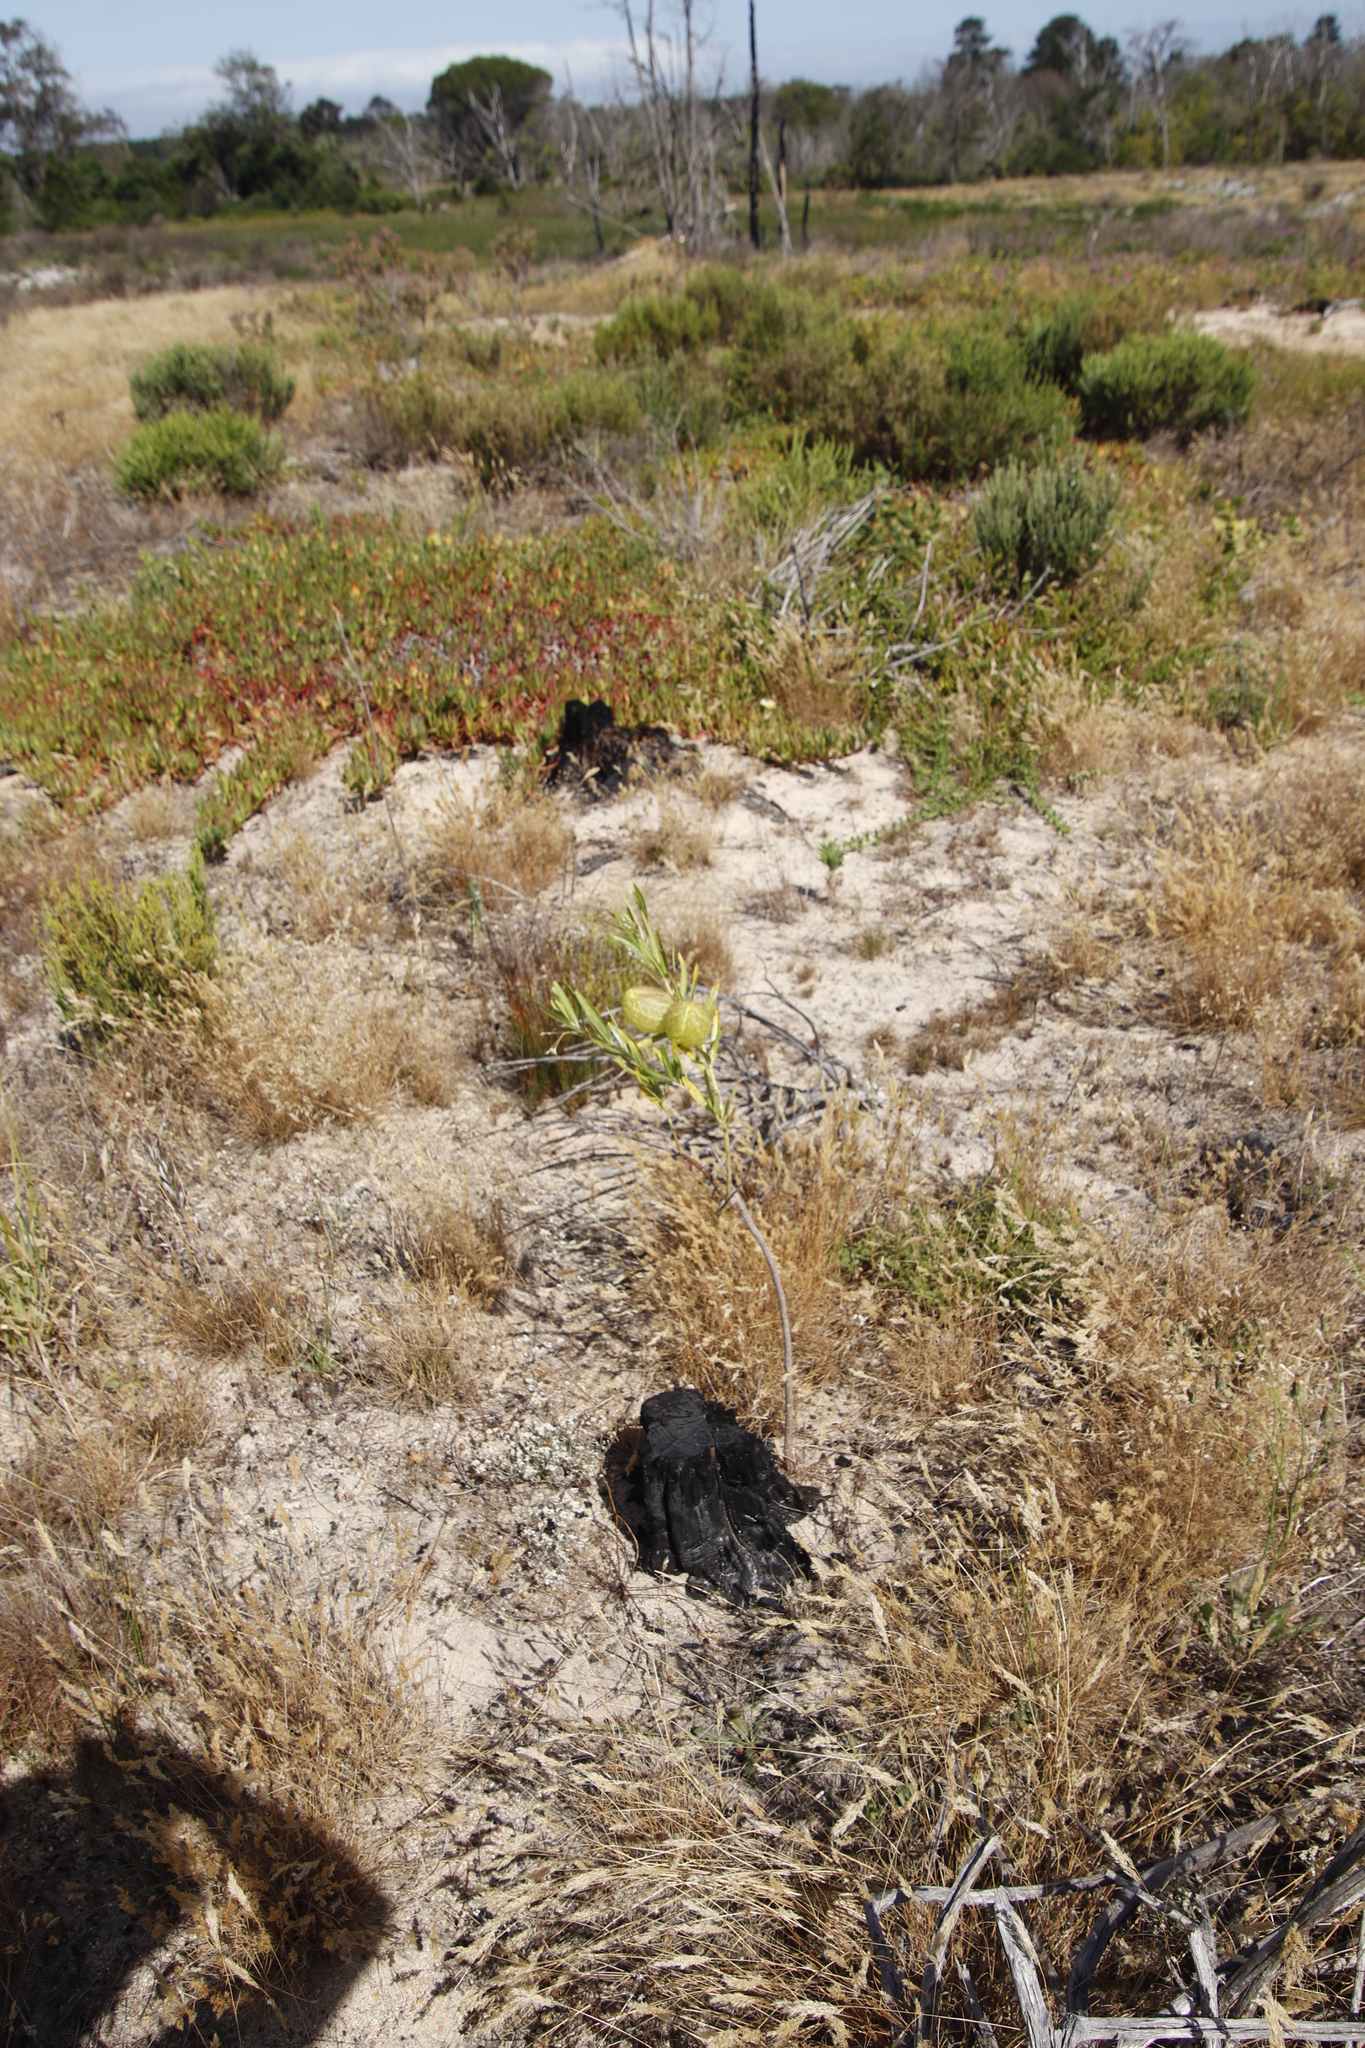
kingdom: Plantae
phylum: Tracheophyta
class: Magnoliopsida
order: Gentianales
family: Apocynaceae
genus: Gomphocarpus
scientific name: Gomphocarpus physocarpus
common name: Balloon cotton bush
